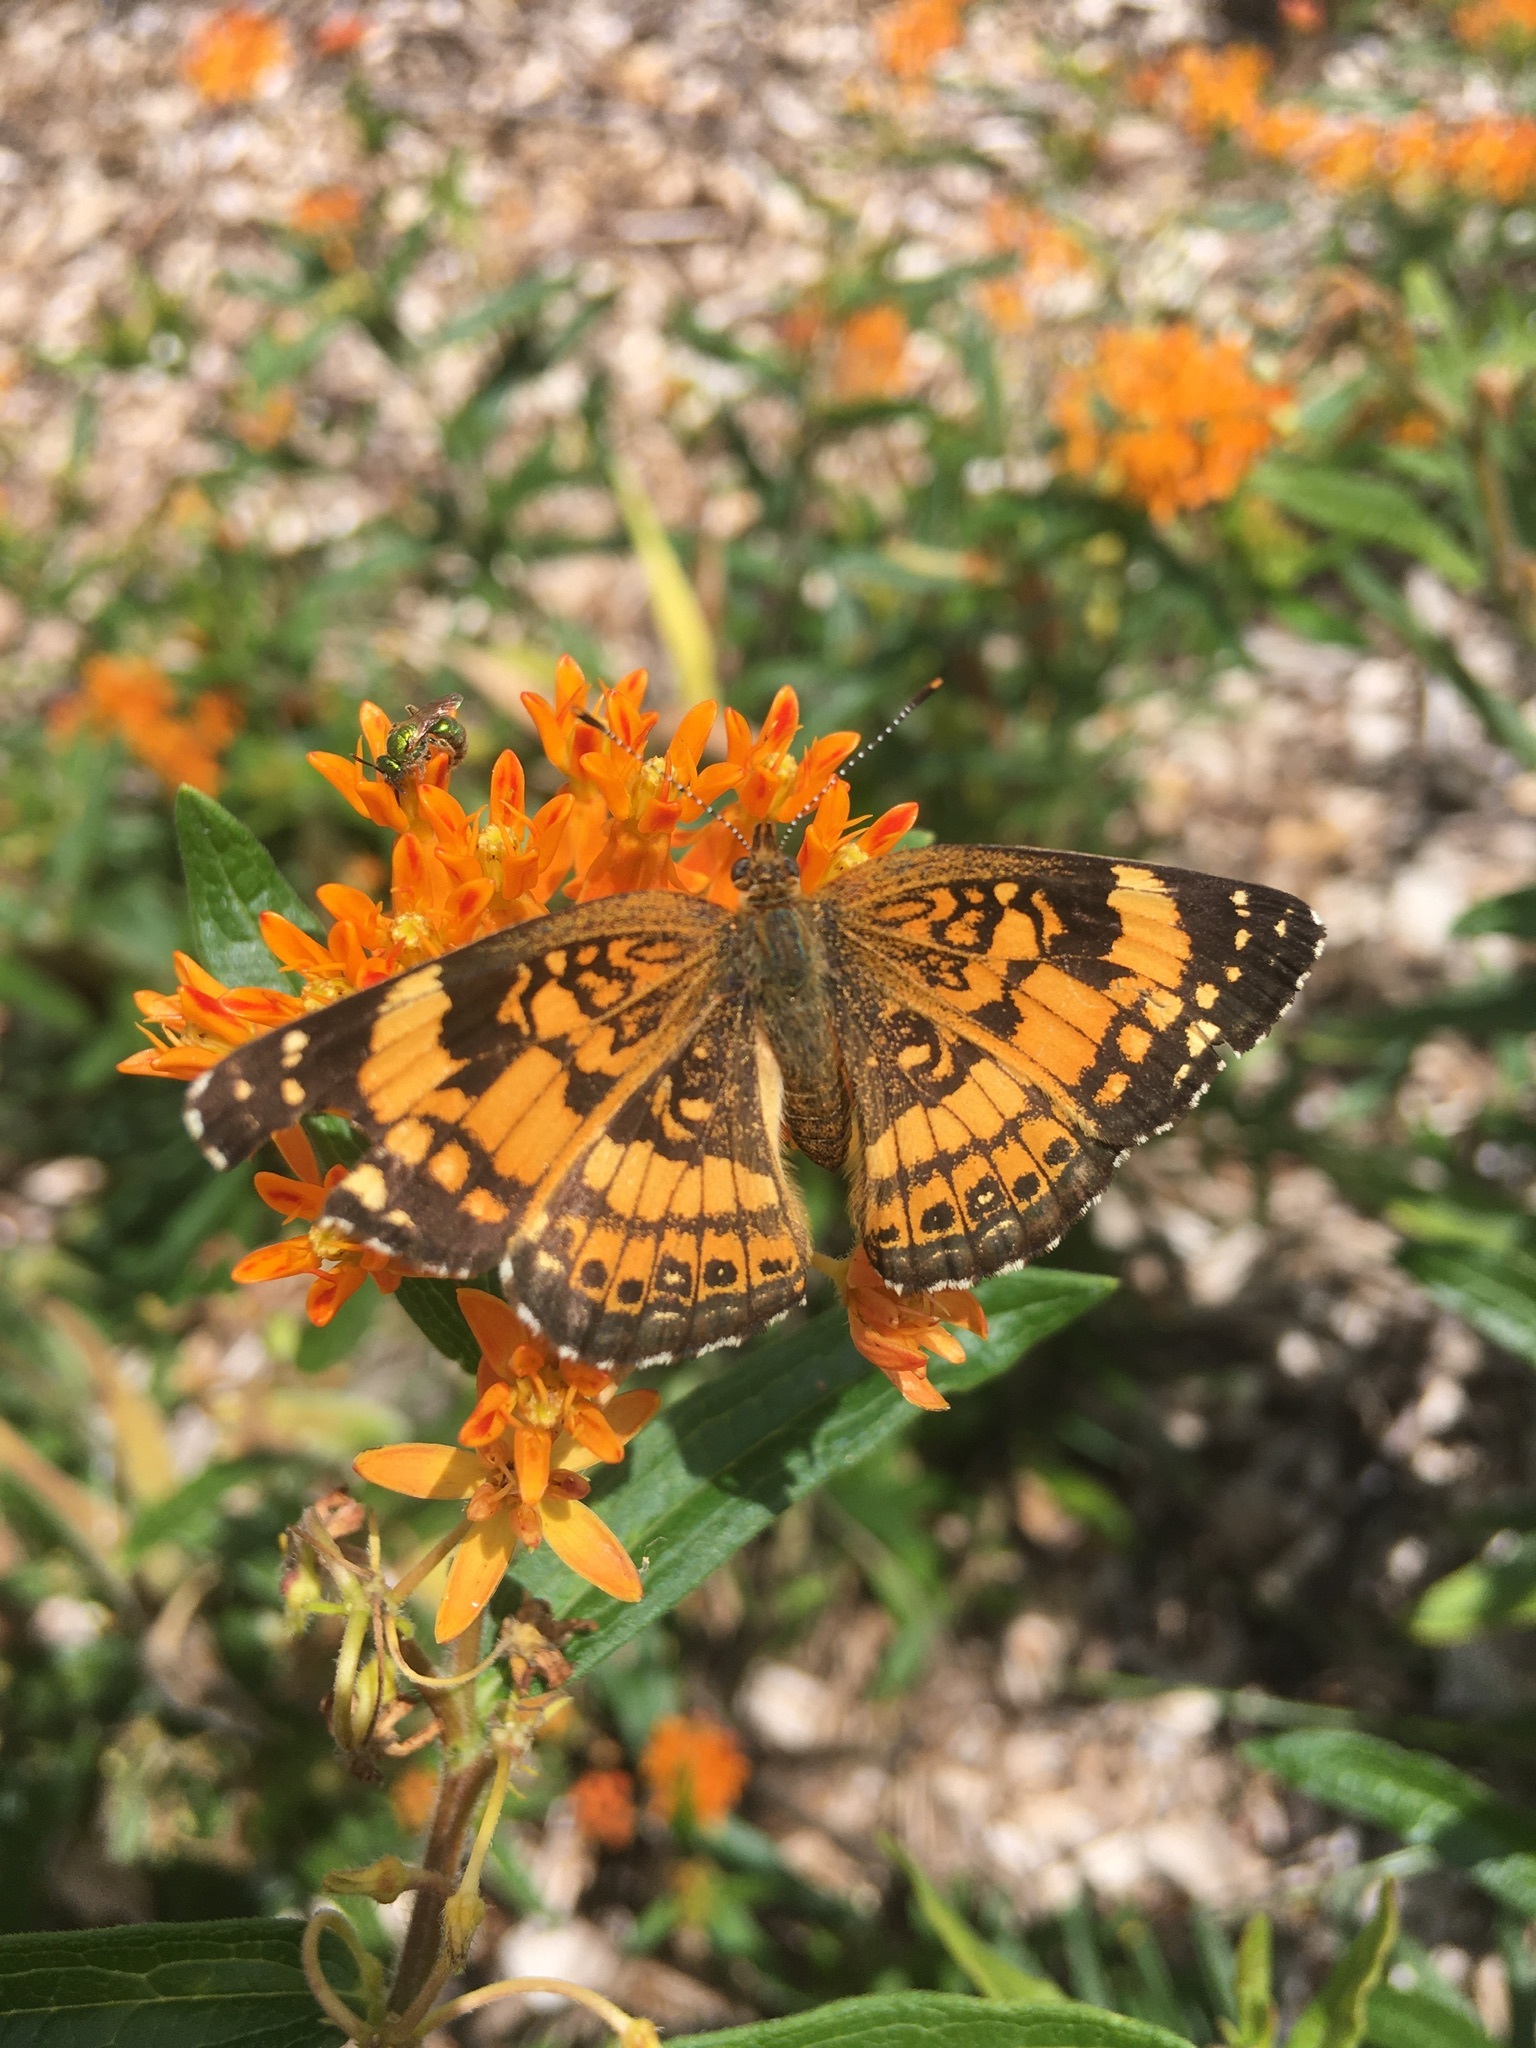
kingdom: Animalia
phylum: Arthropoda
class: Insecta
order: Lepidoptera
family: Nymphalidae
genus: Chlosyne
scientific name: Chlosyne nycteis
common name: Silvery checkerspot
